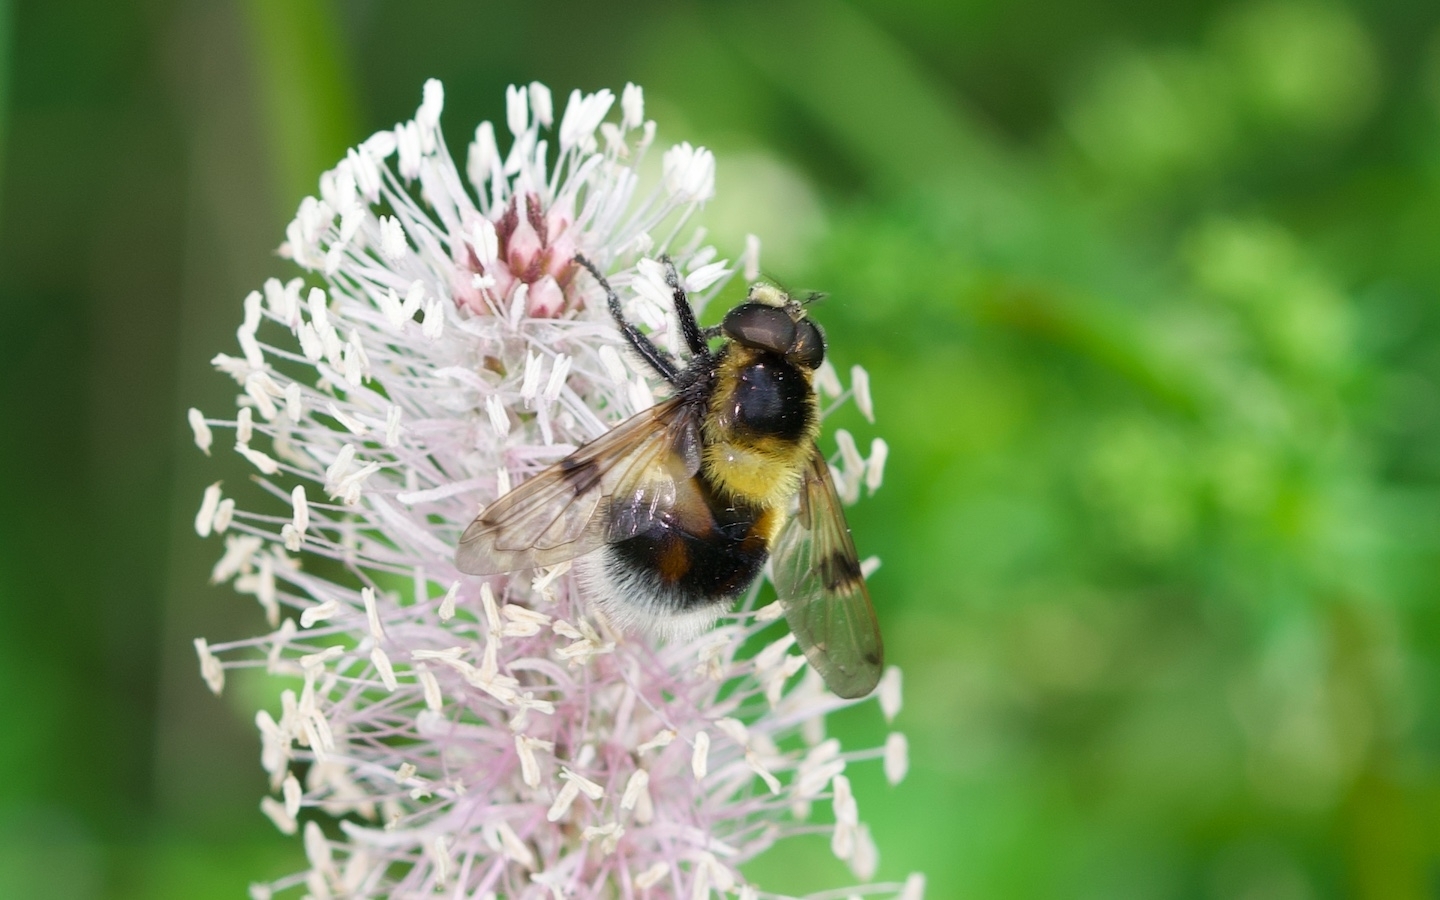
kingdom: Animalia
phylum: Arthropoda
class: Insecta
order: Diptera
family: Syrphidae
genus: Volucella
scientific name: Volucella bombylans
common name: Bumble bee hover fly
